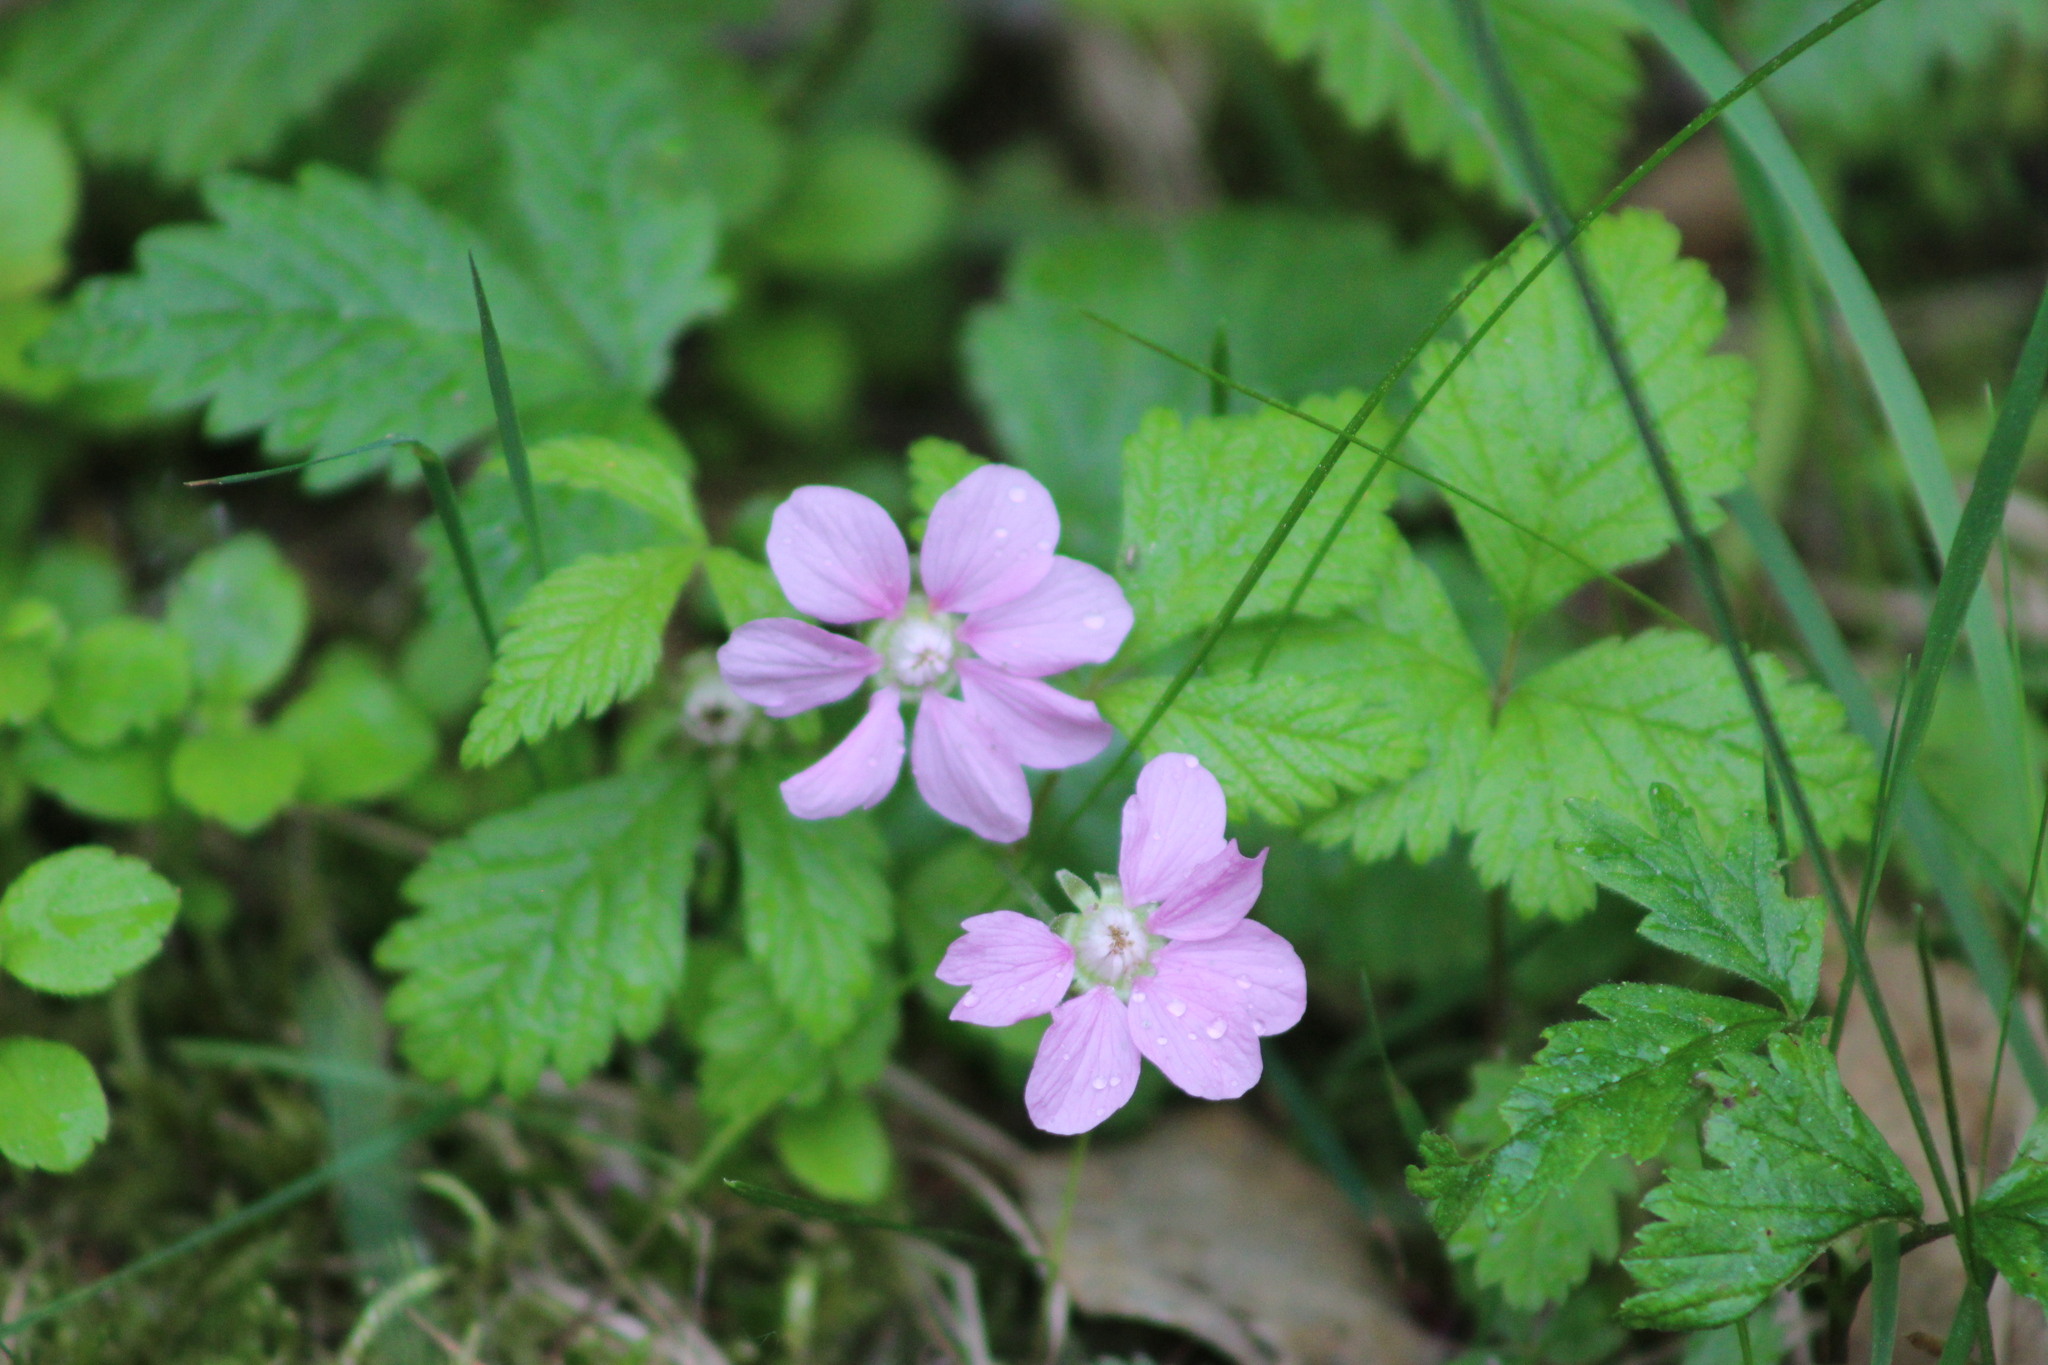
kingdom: Plantae
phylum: Tracheophyta
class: Magnoliopsida
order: Rosales
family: Rosaceae
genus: Rubus
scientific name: Rubus arcticus
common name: Arctic bramble
